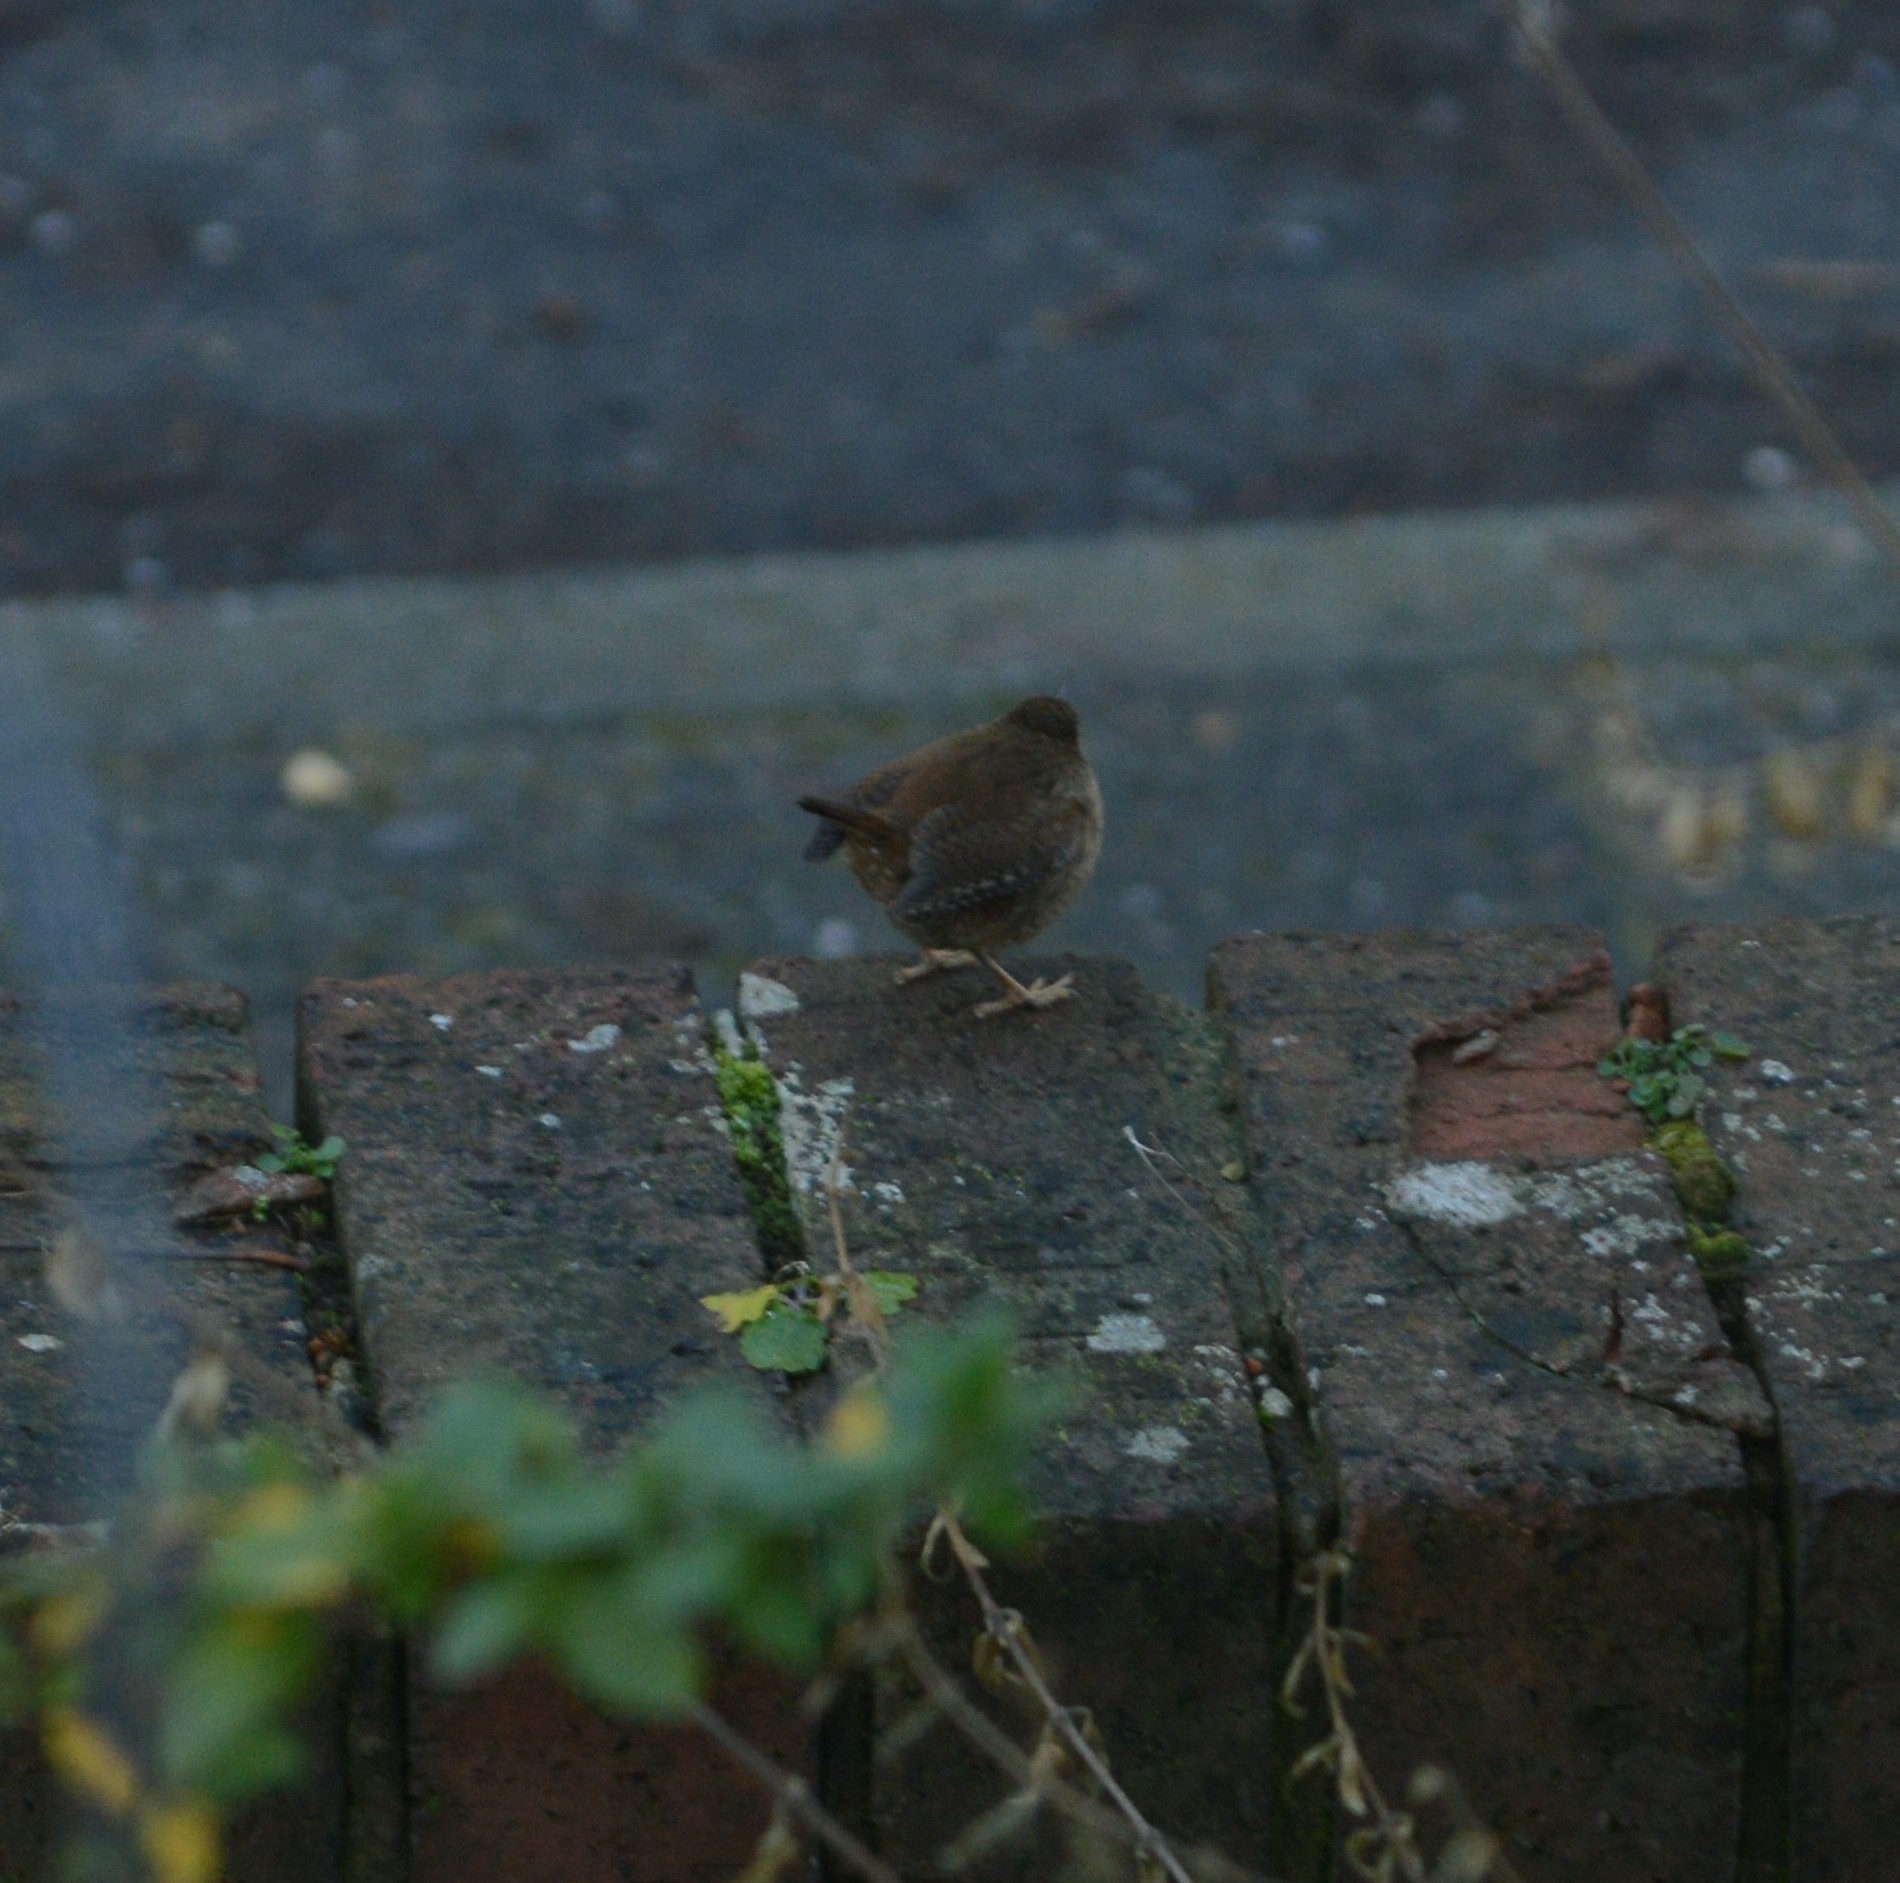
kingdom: Animalia
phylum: Chordata
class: Aves
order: Passeriformes
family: Troglodytidae
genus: Troglodytes
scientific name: Troglodytes troglodytes
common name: Eurasian wren
